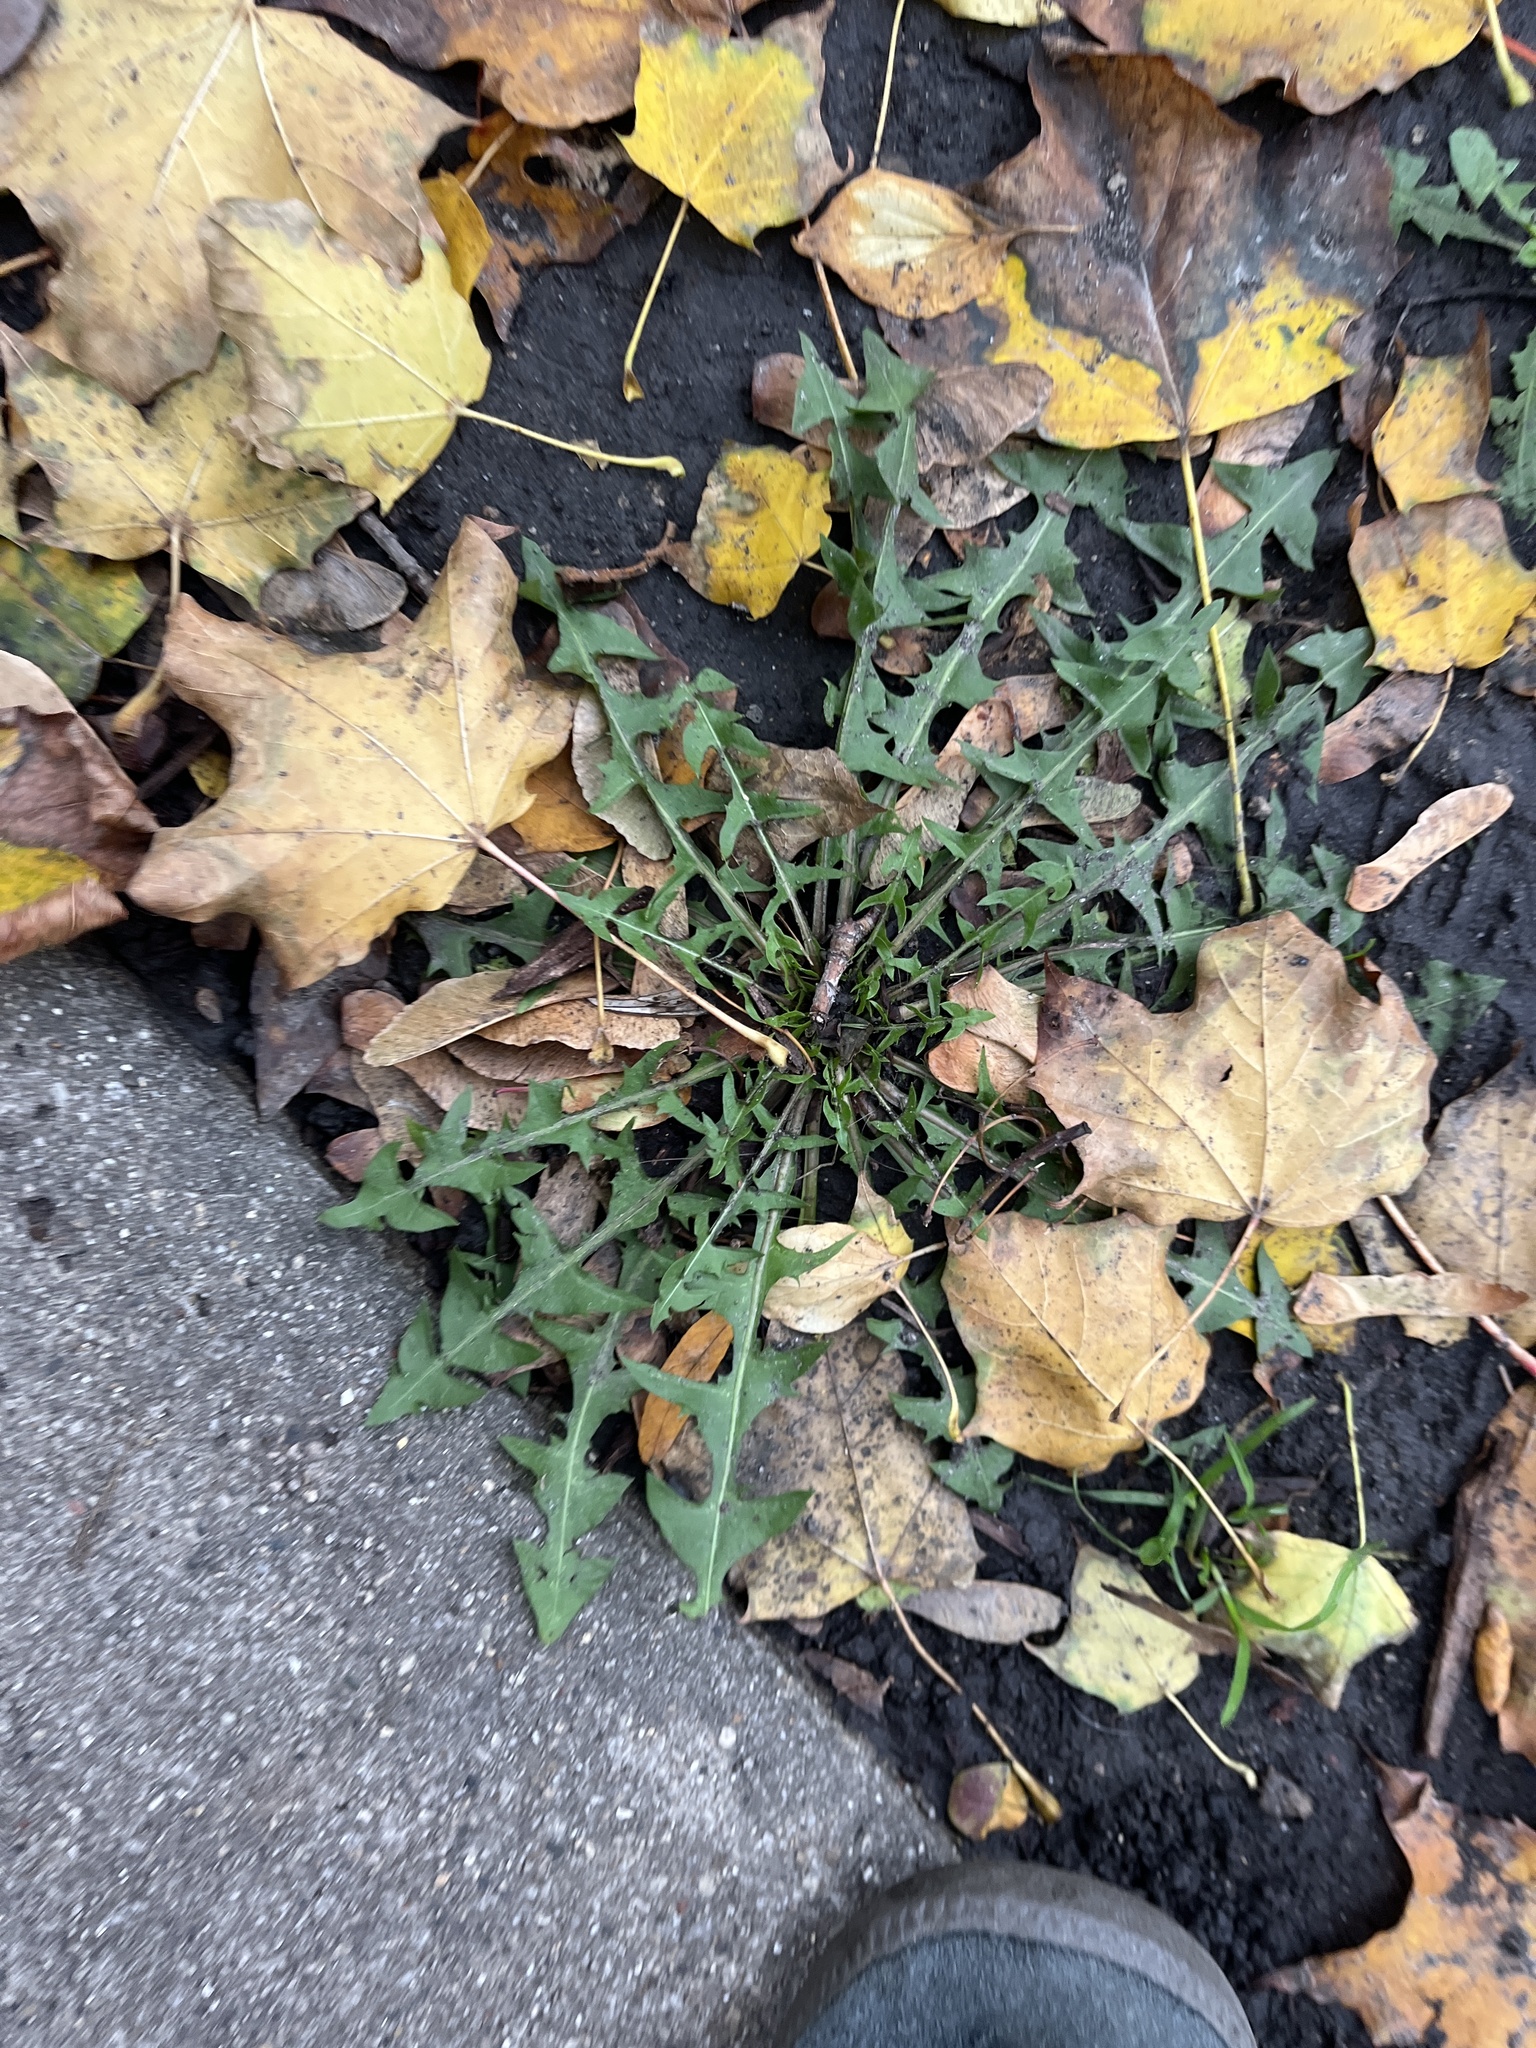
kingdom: Plantae
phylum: Tracheophyta
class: Magnoliopsida
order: Asterales
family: Asteraceae
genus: Taraxacum
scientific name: Taraxacum officinale
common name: Common dandelion
